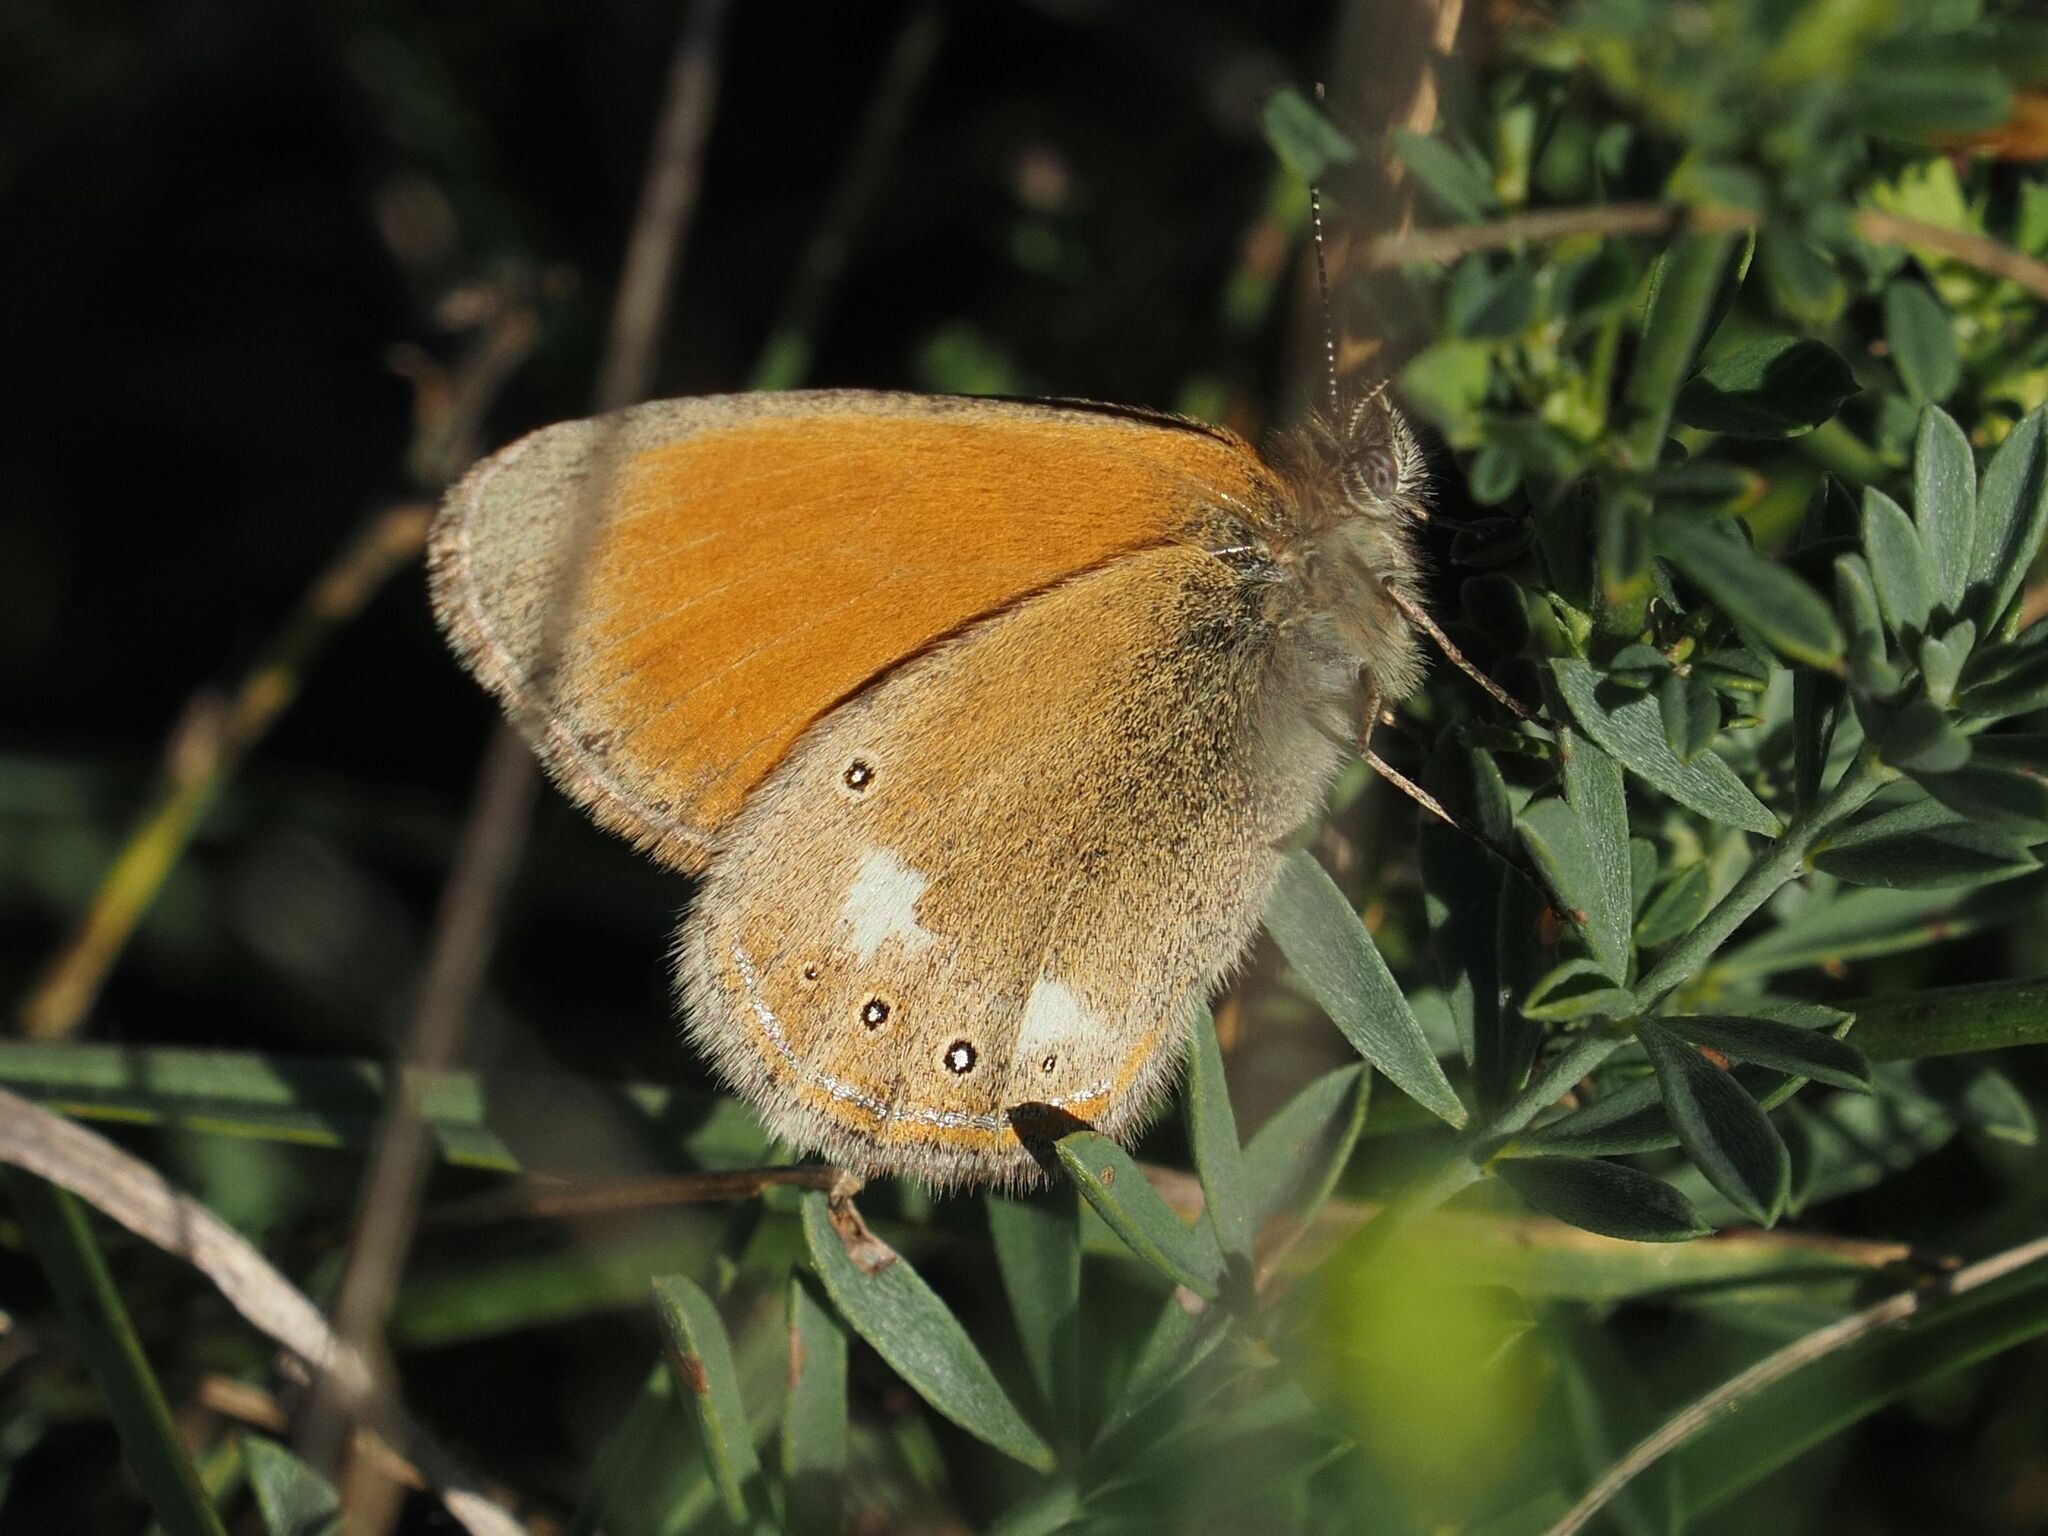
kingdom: Animalia
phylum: Arthropoda
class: Insecta
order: Lepidoptera
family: Nymphalidae
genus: Coenonympha
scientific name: Coenonympha iphis
